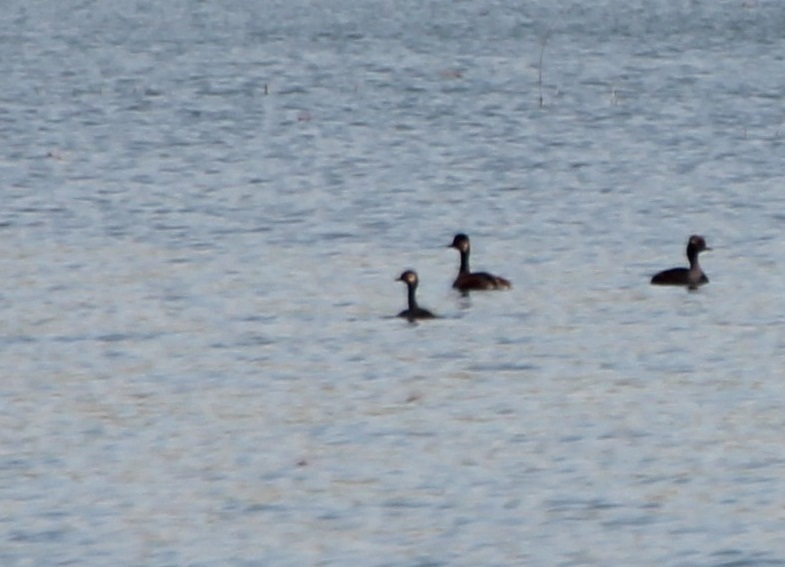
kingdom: Animalia
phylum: Chordata
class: Aves
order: Podicipediformes
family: Podicipedidae
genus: Podiceps
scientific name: Podiceps nigricollis
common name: Black-necked grebe
